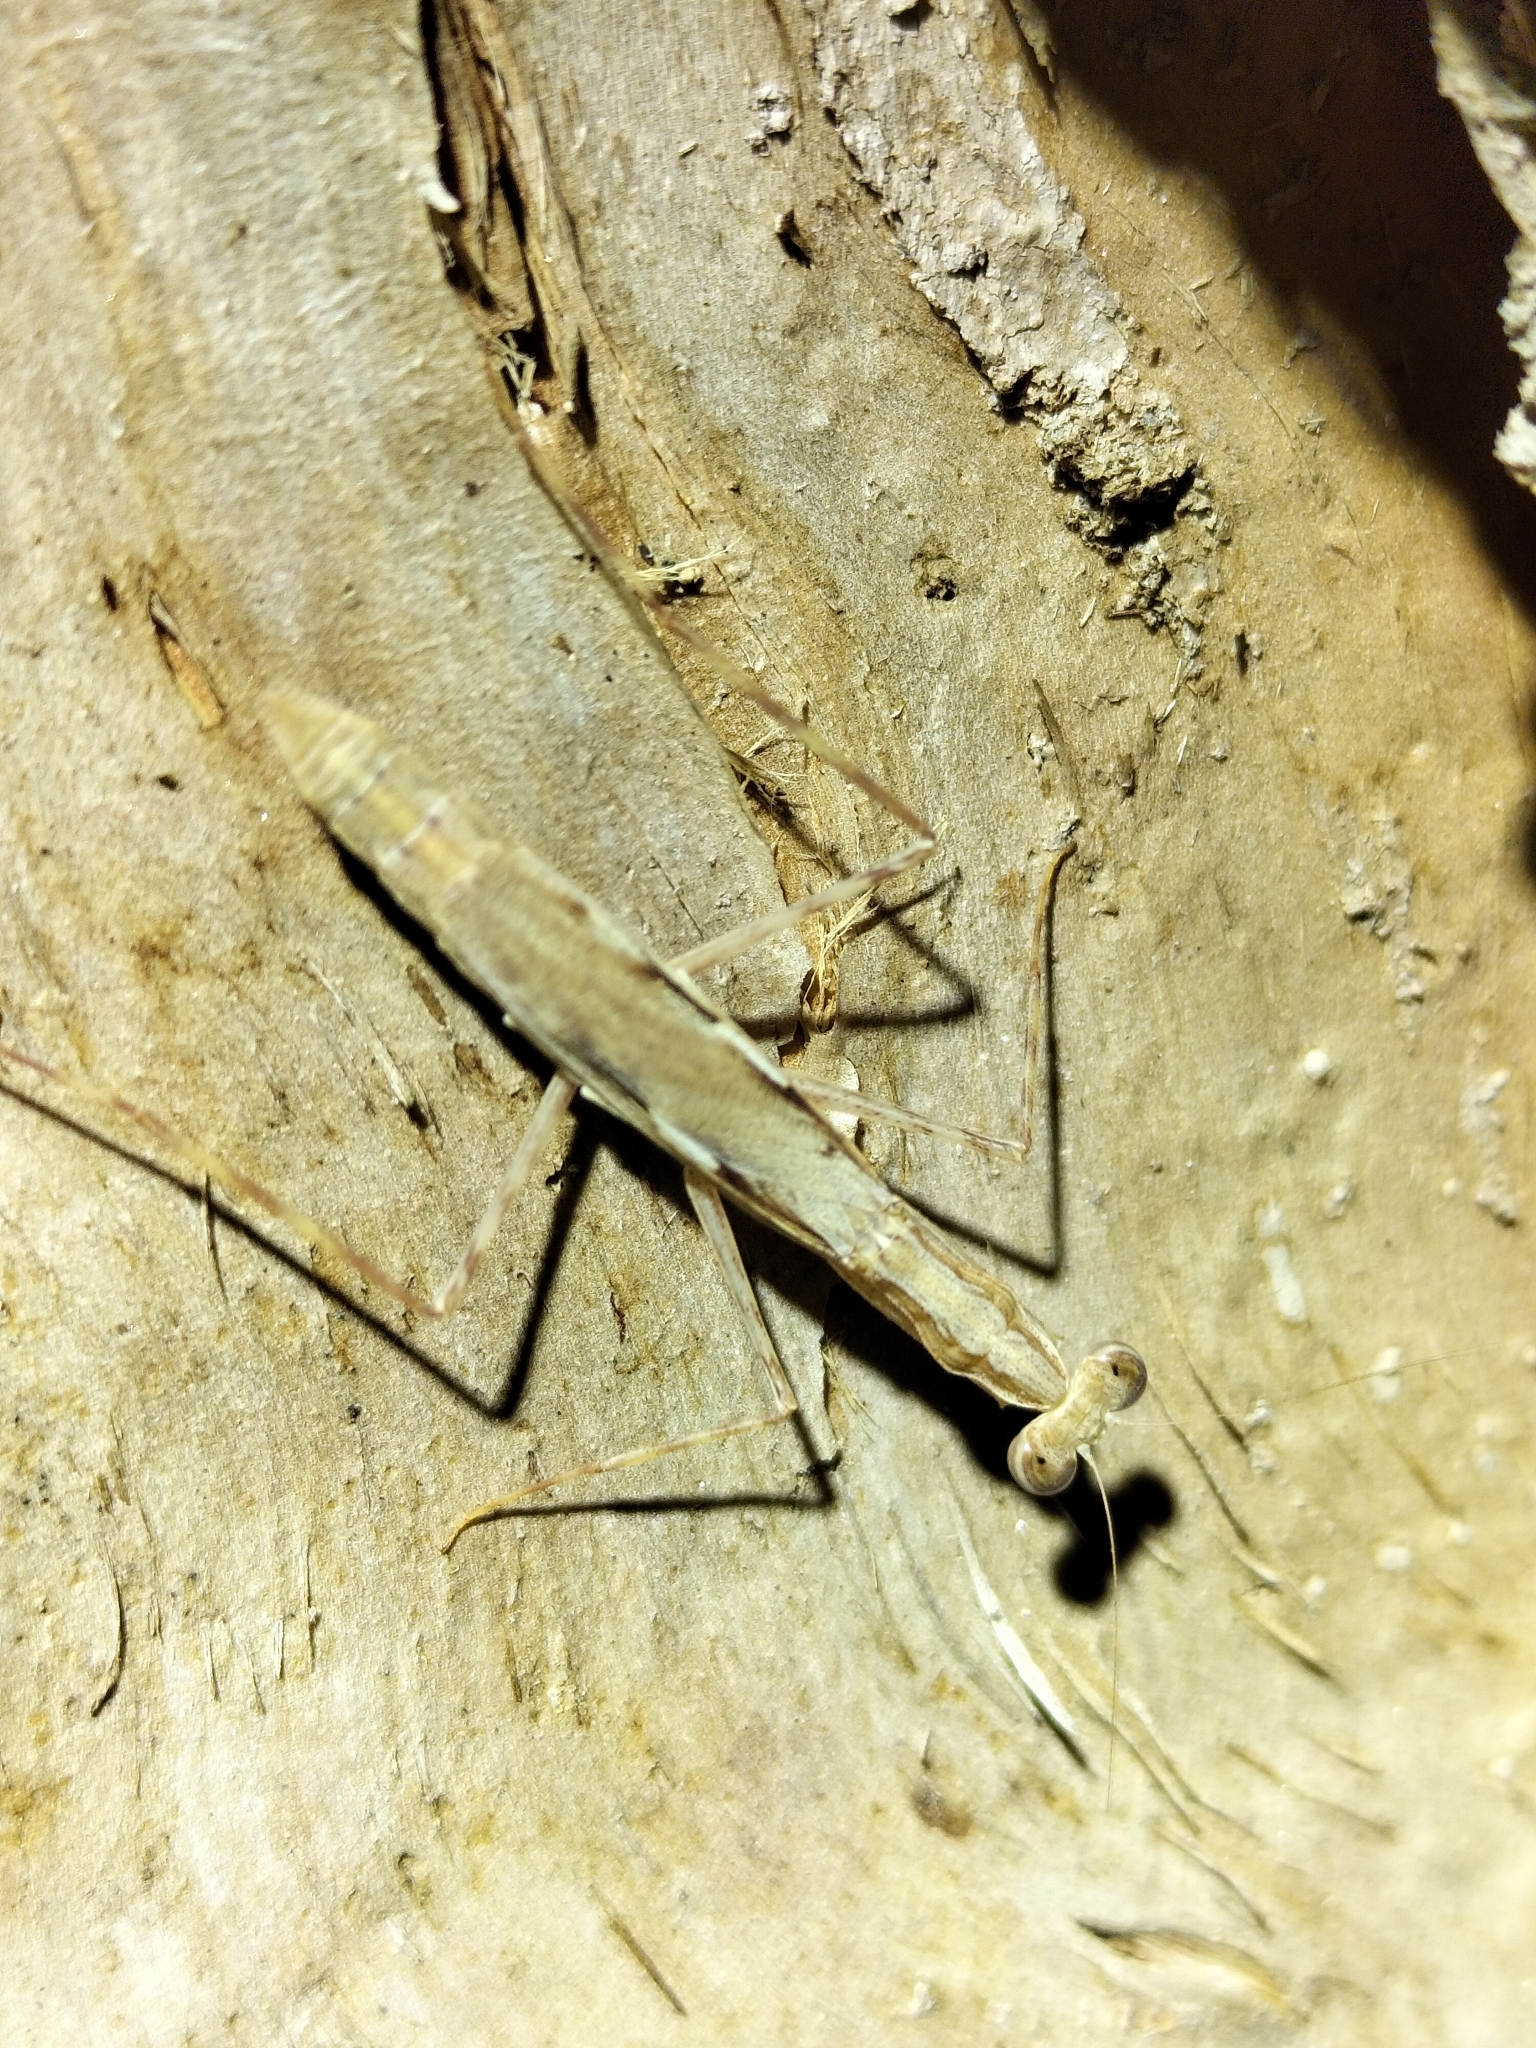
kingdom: Animalia
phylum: Arthropoda
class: Insecta
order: Mantodea
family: Nanomantidae
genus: Ima
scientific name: Ima fusca
